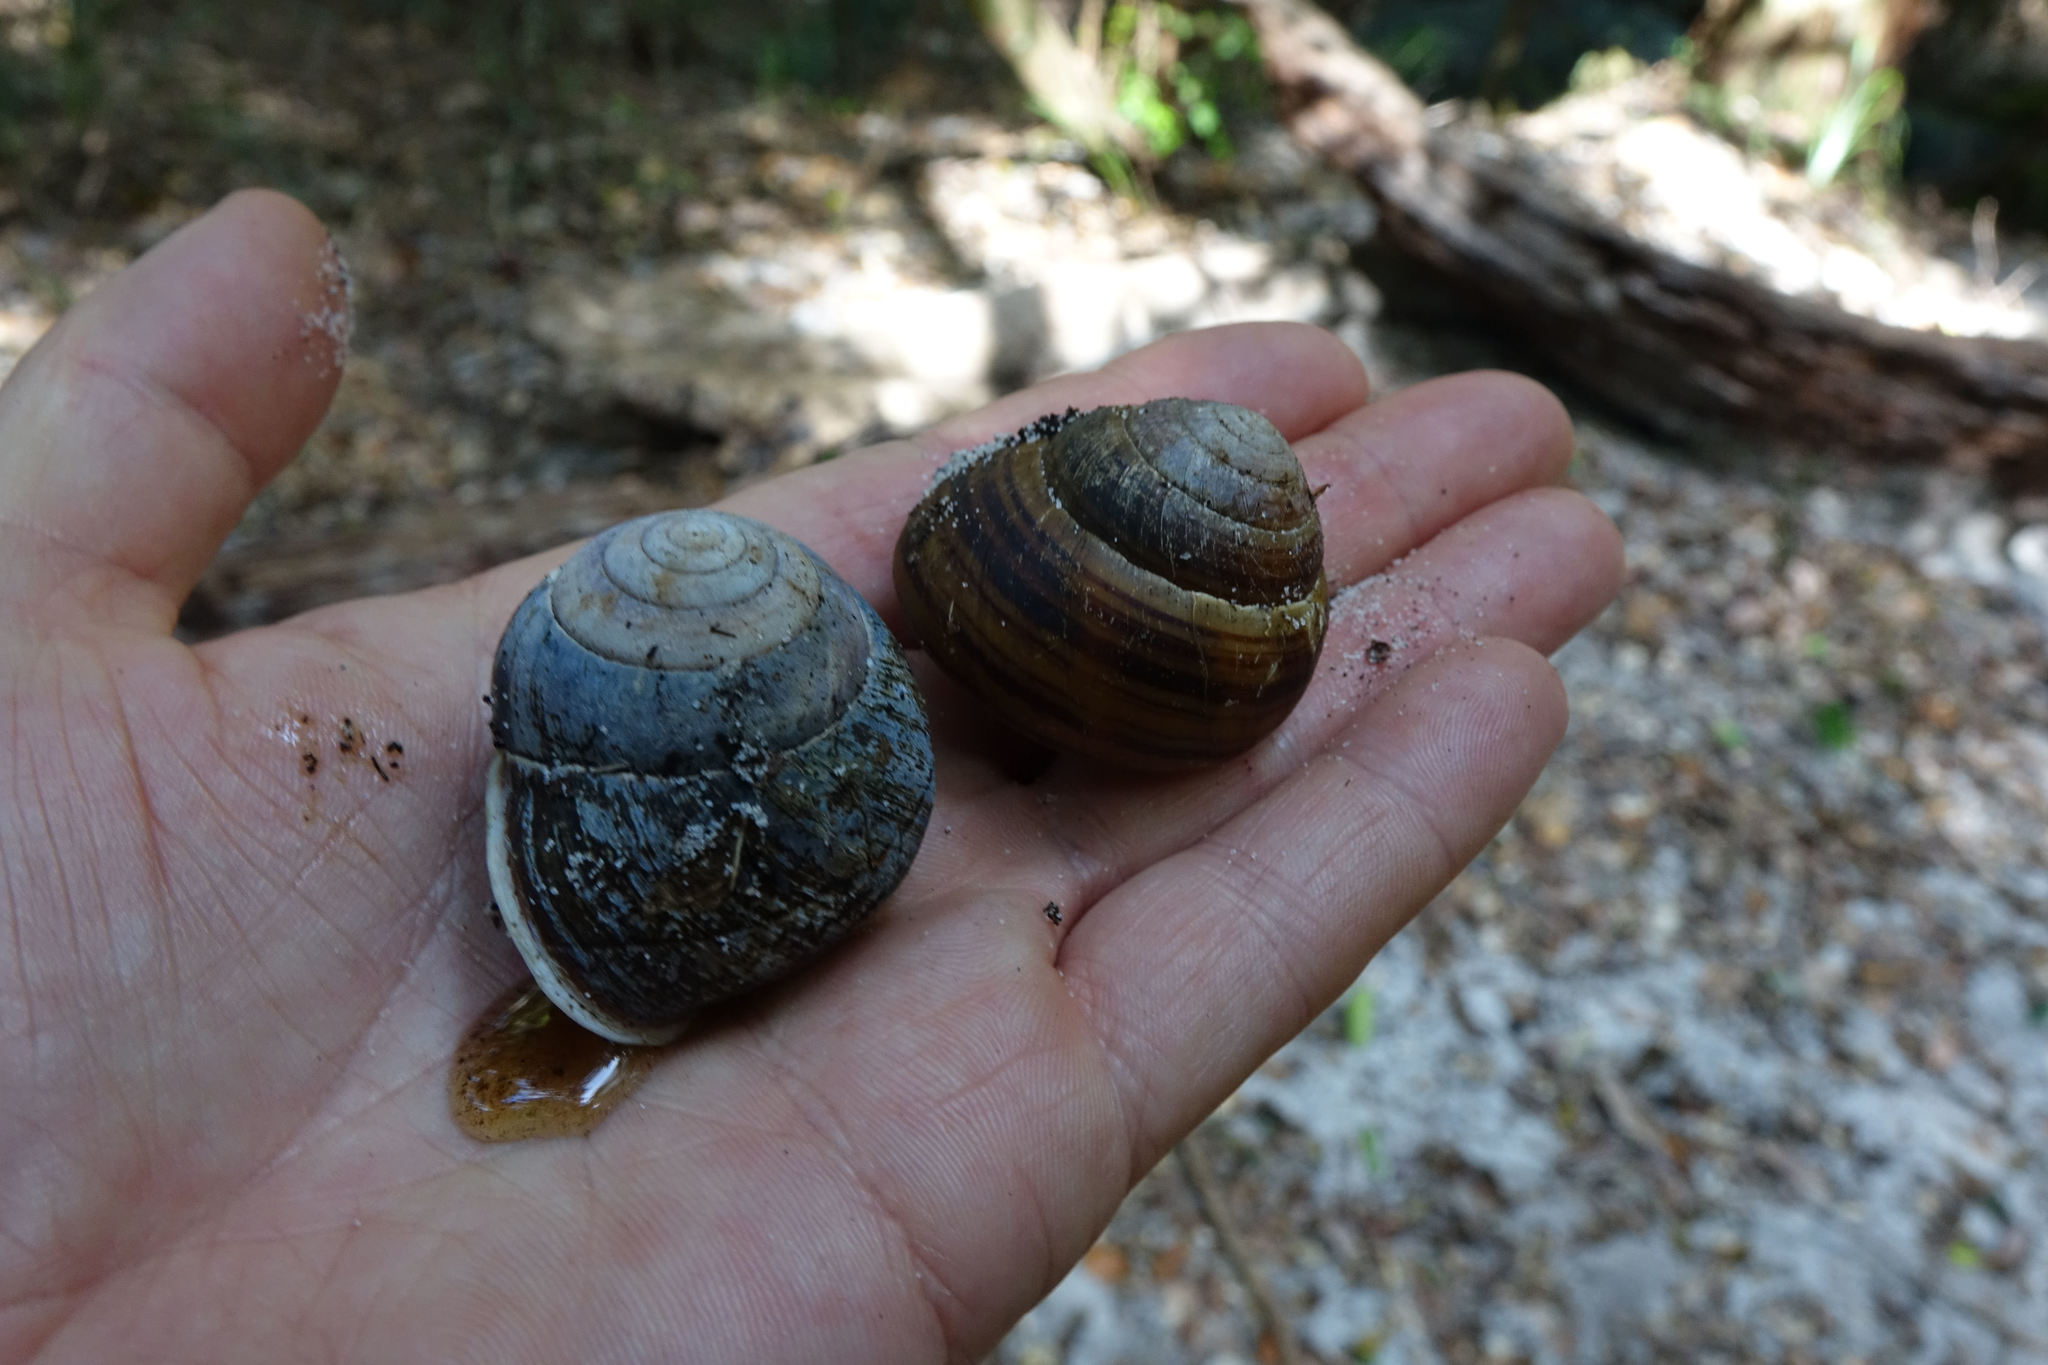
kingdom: Animalia
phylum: Mollusca
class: Gastropoda
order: Stylommatophora
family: Camaenidae
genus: Figuladra
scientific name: Figuladra
